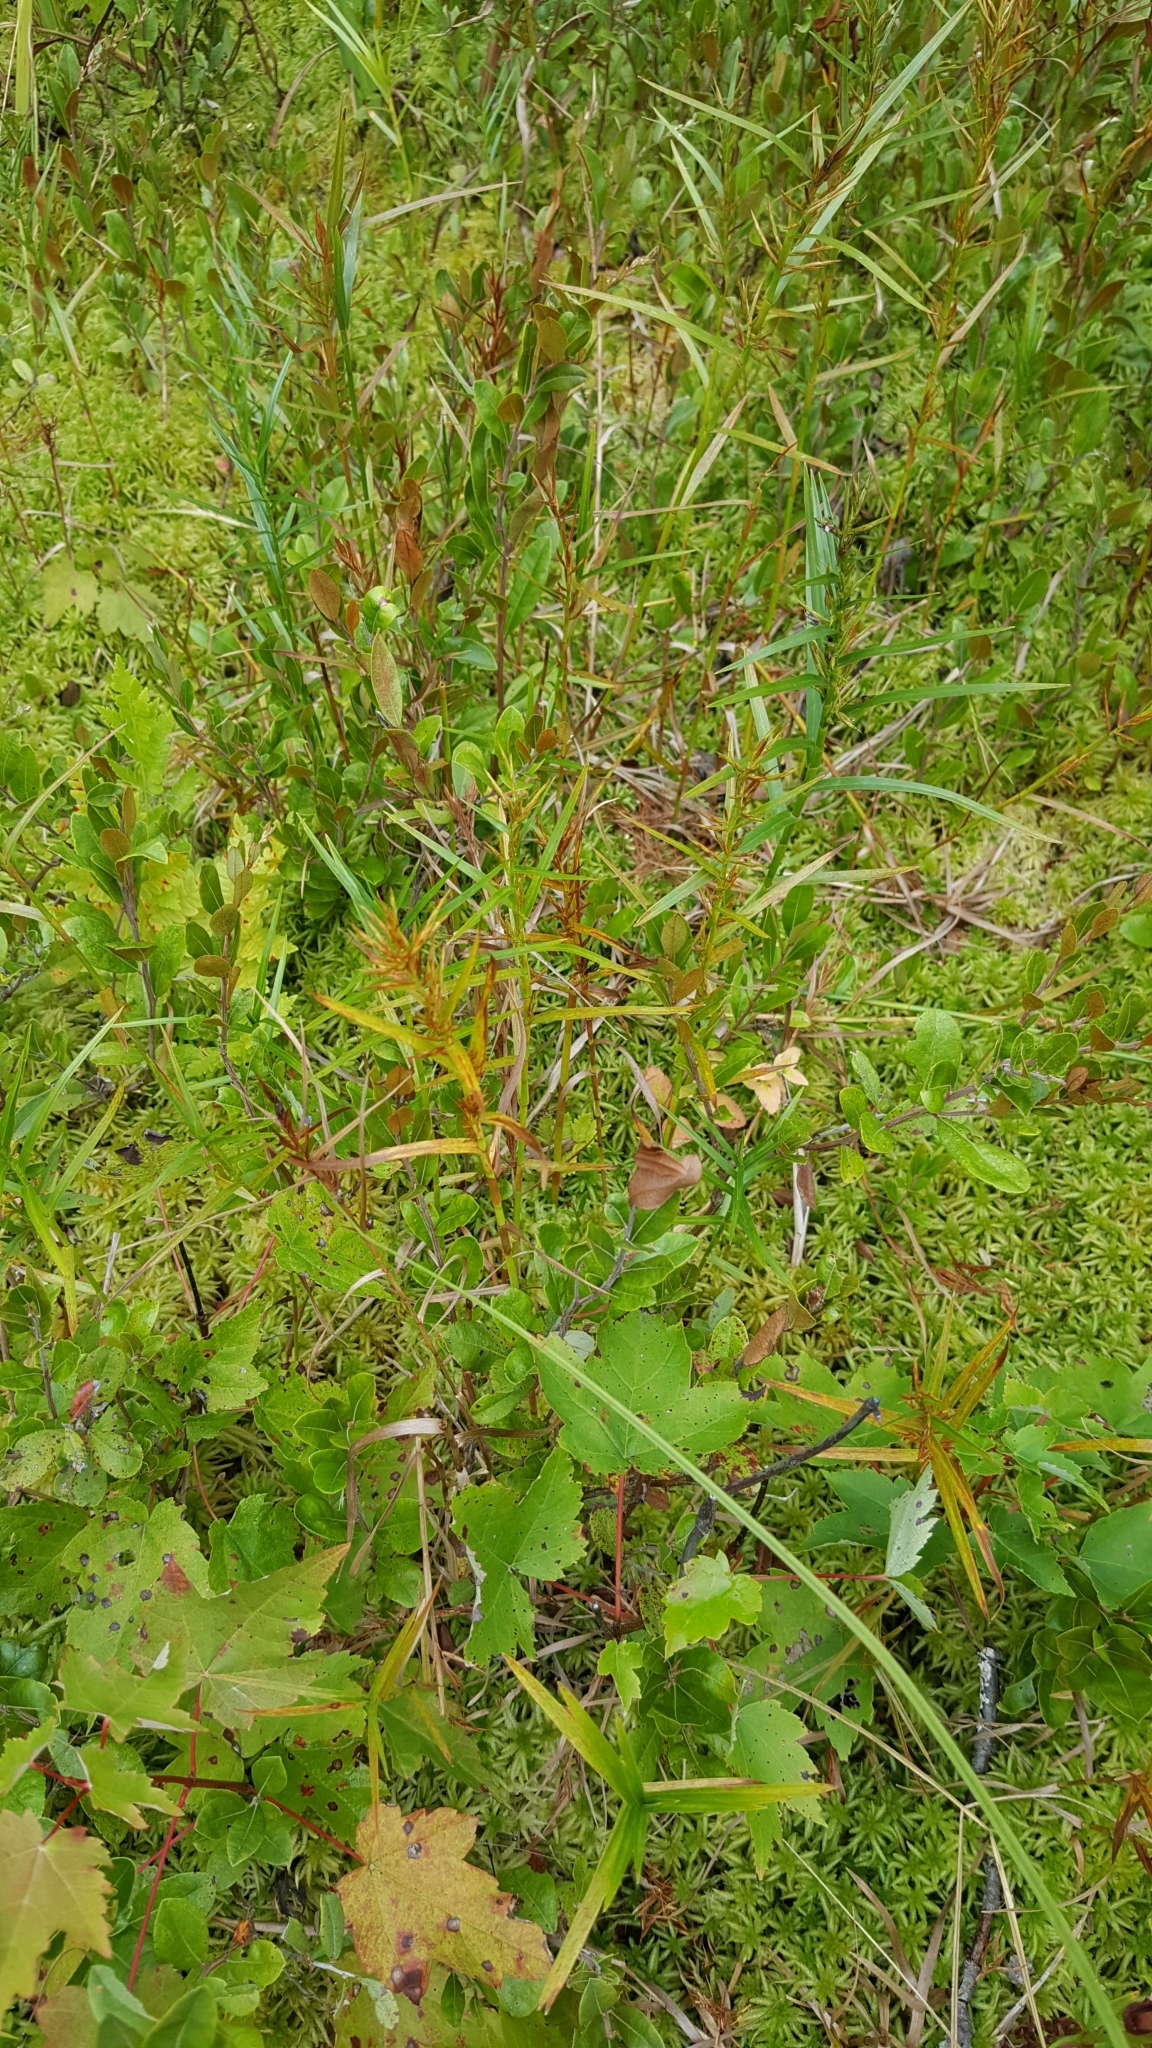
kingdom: Plantae
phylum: Tracheophyta
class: Liliopsida
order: Poales
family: Cyperaceae
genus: Dulichium
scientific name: Dulichium arundinaceum
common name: Three-way sedge
